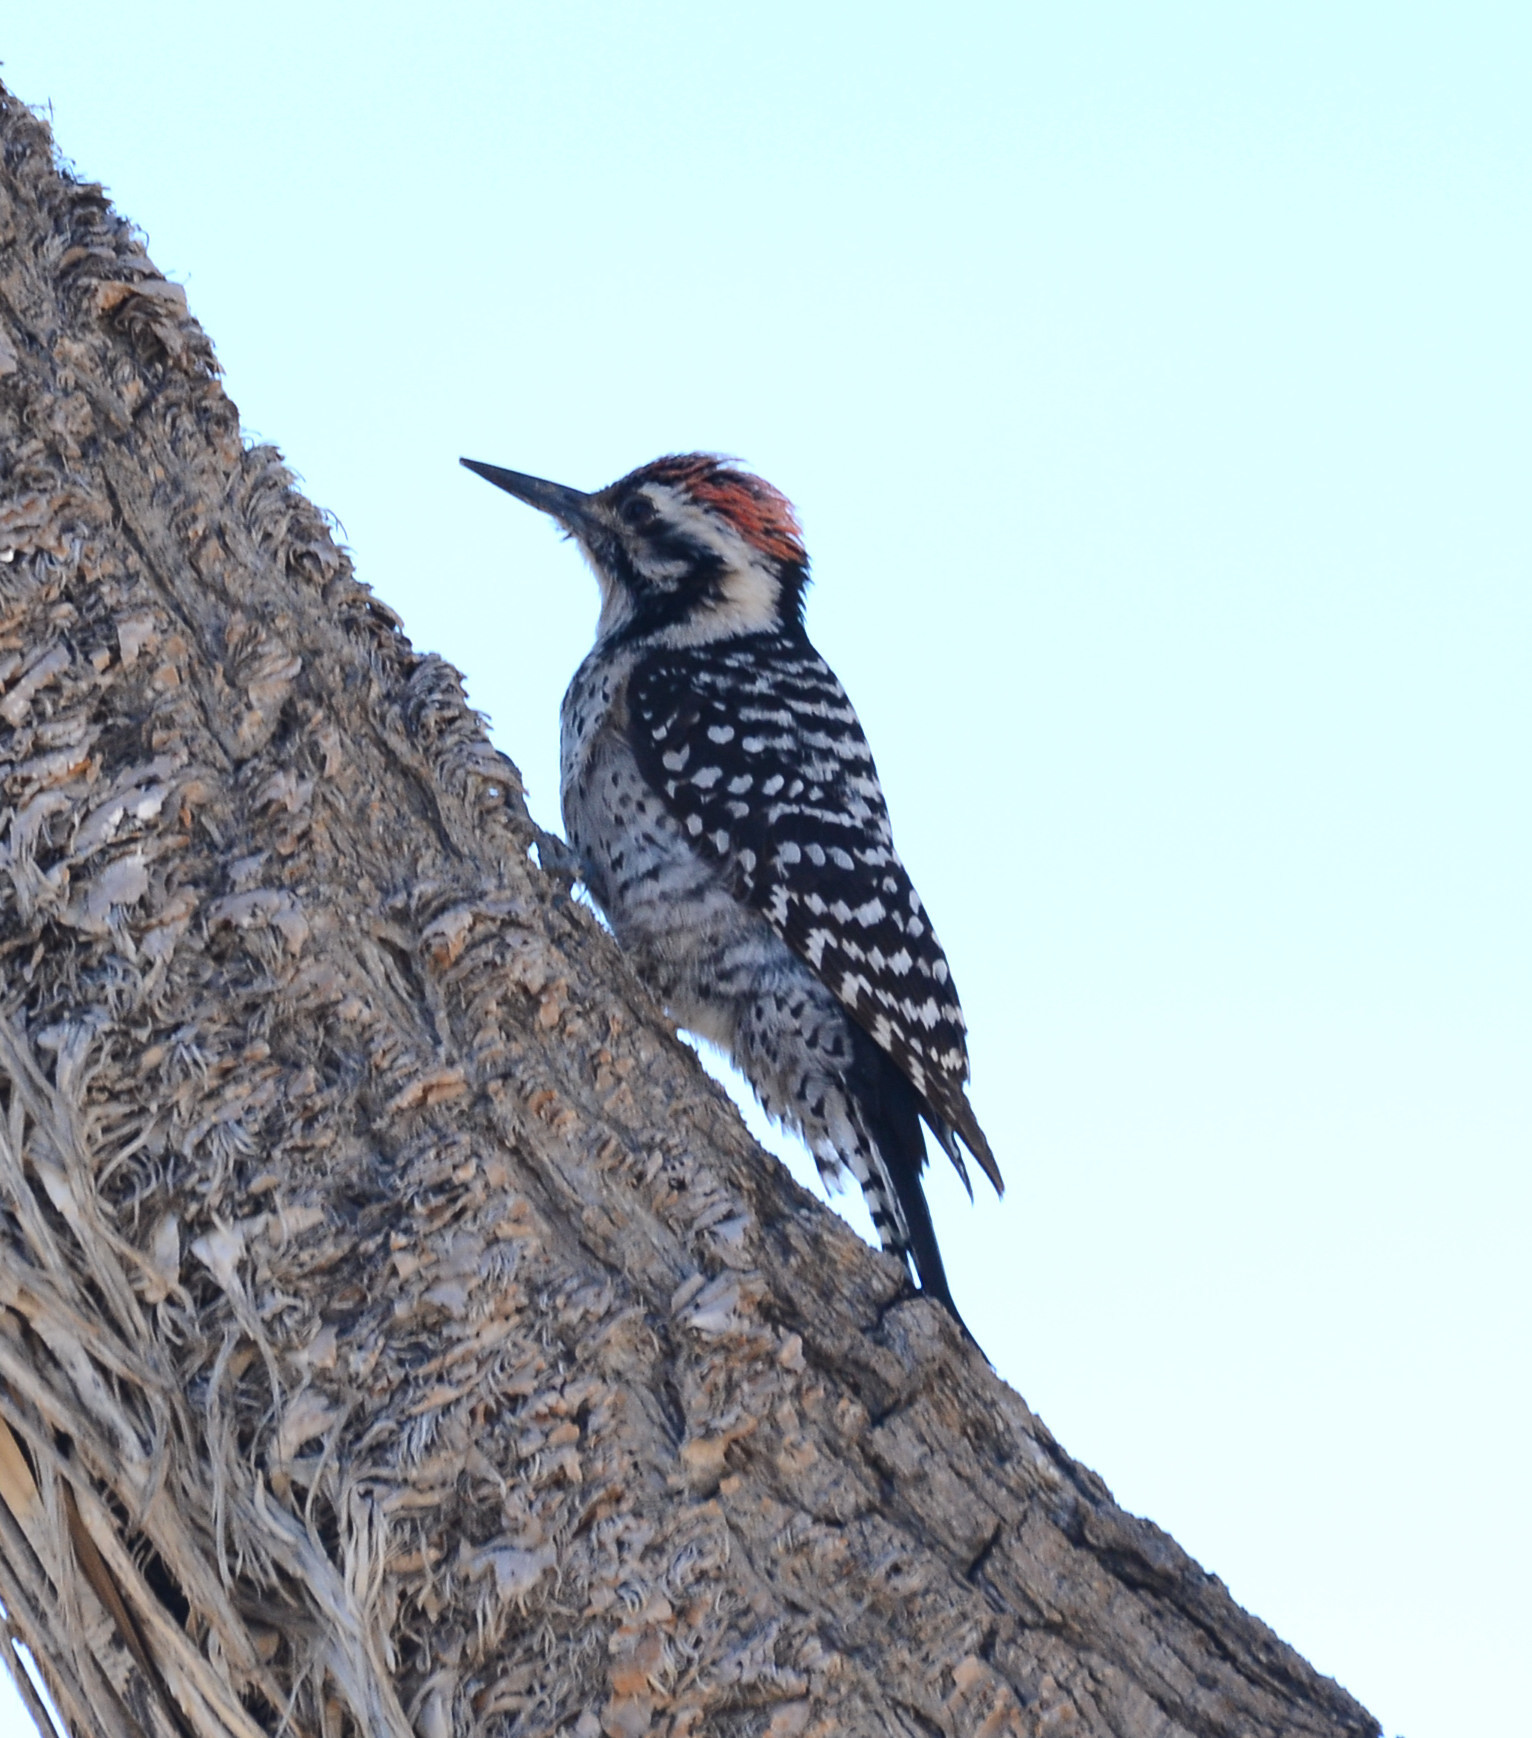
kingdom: Animalia
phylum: Chordata
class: Aves
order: Piciformes
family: Picidae
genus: Dryobates
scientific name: Dryobates scalaris
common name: Ladder-backed woodpecker
